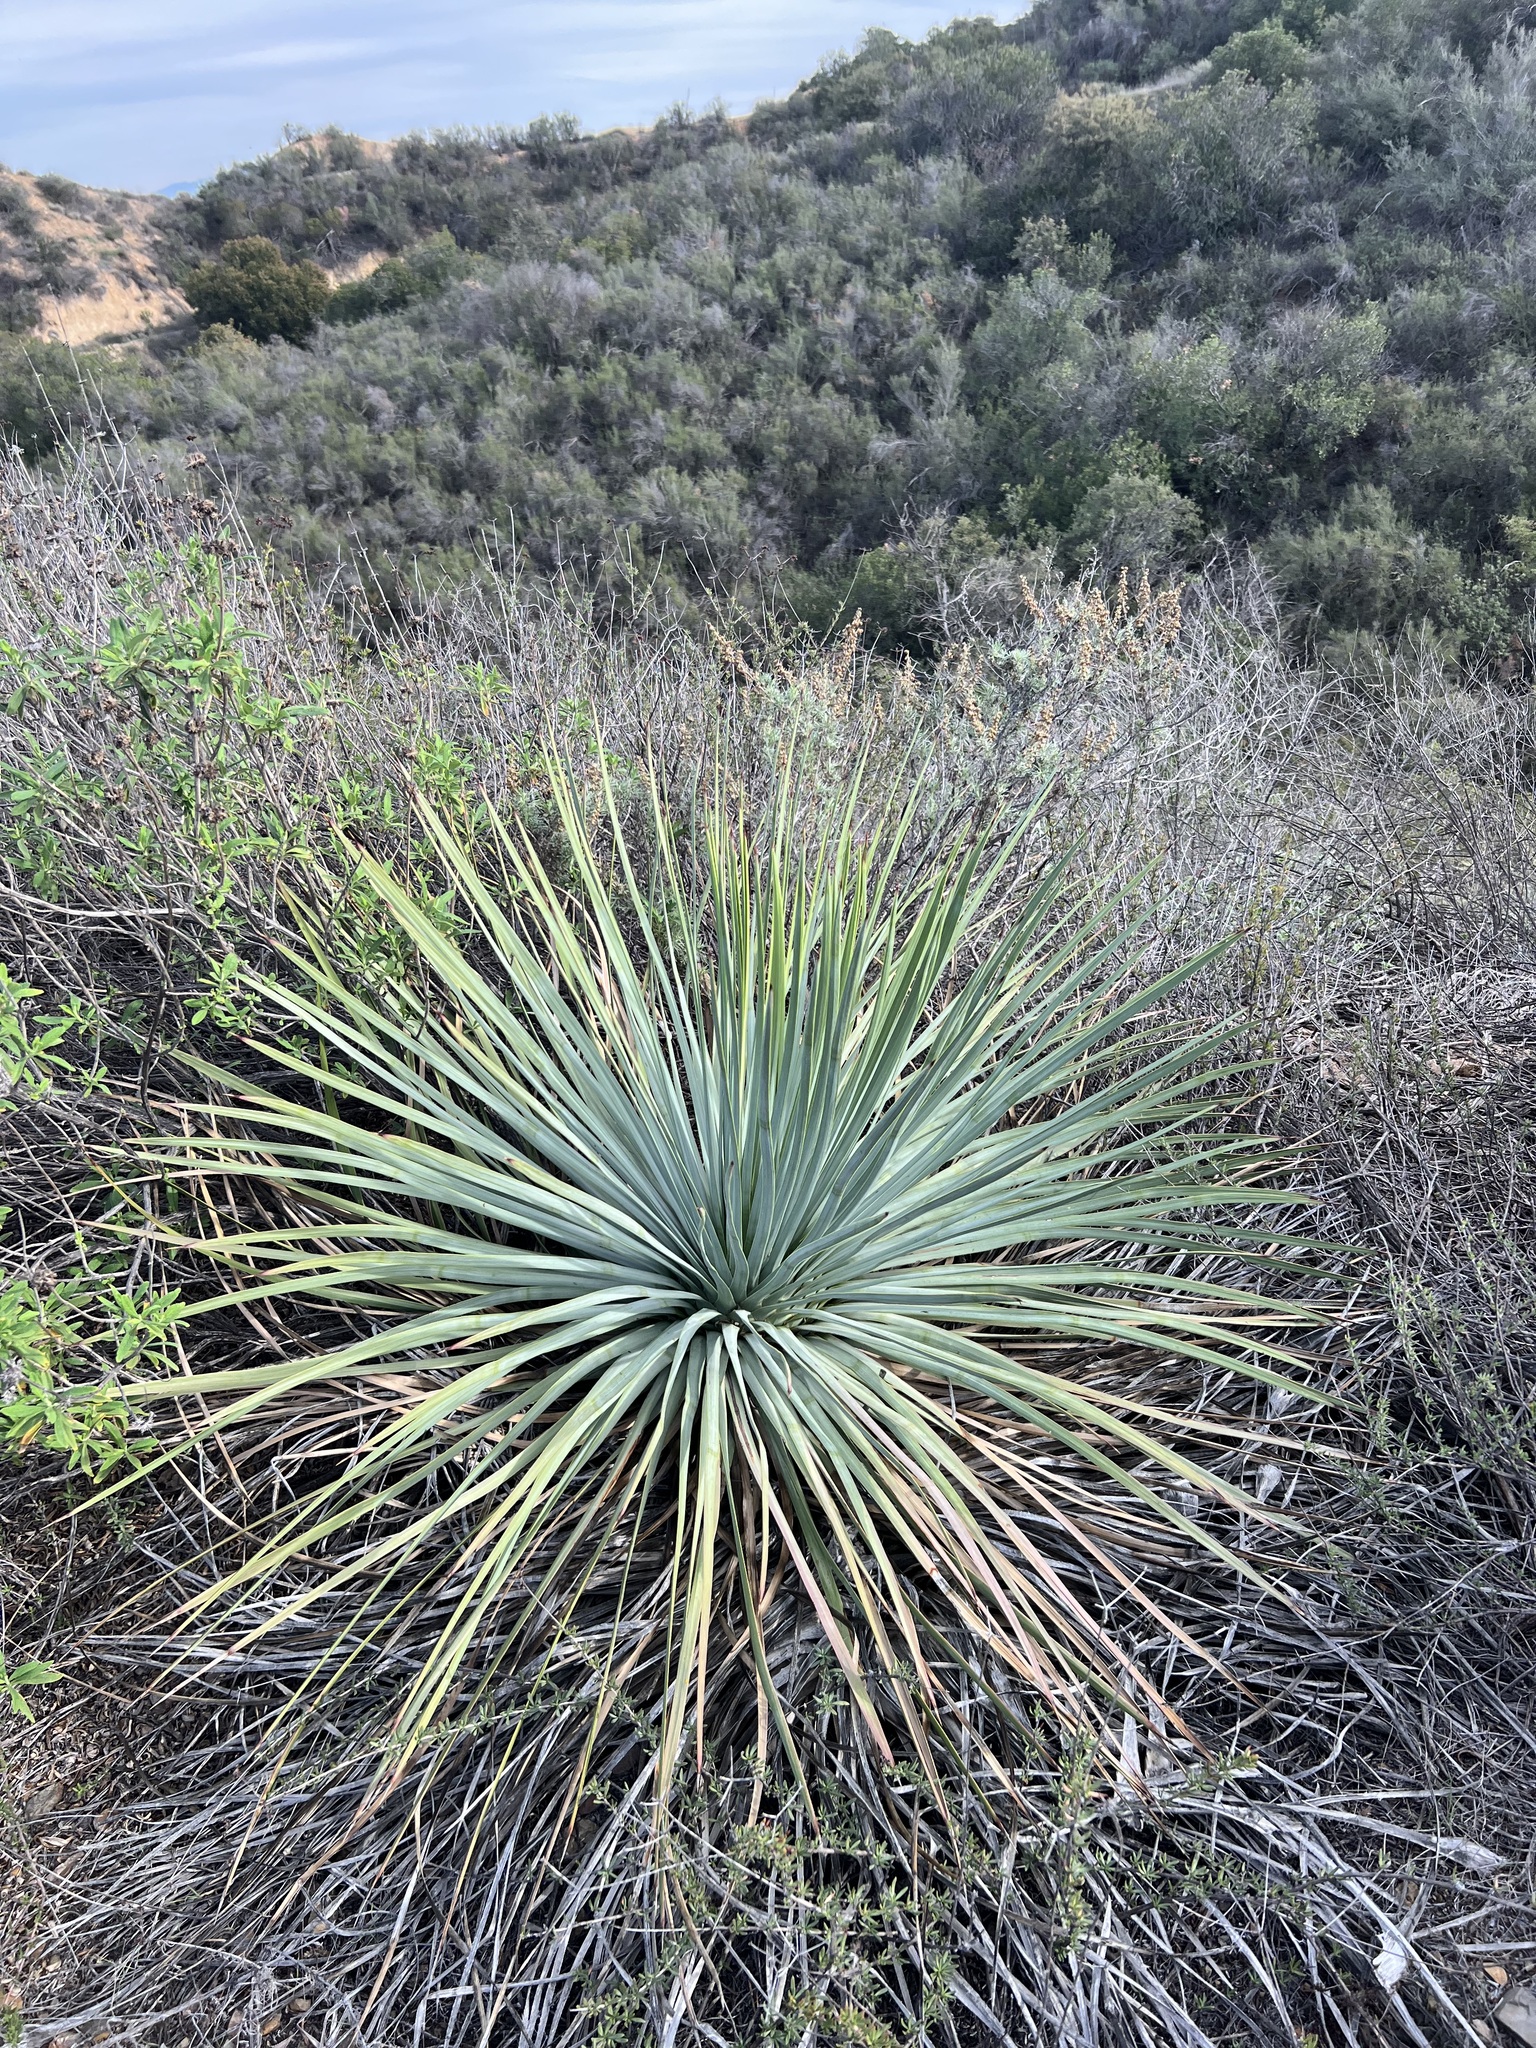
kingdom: Plantae
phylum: Tracheophyta
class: Liliopsida
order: Asparagales
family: Asparagaceae
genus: Hesperoyucca
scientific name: Hesperoyucca whipplei
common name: Our lord's-candle
